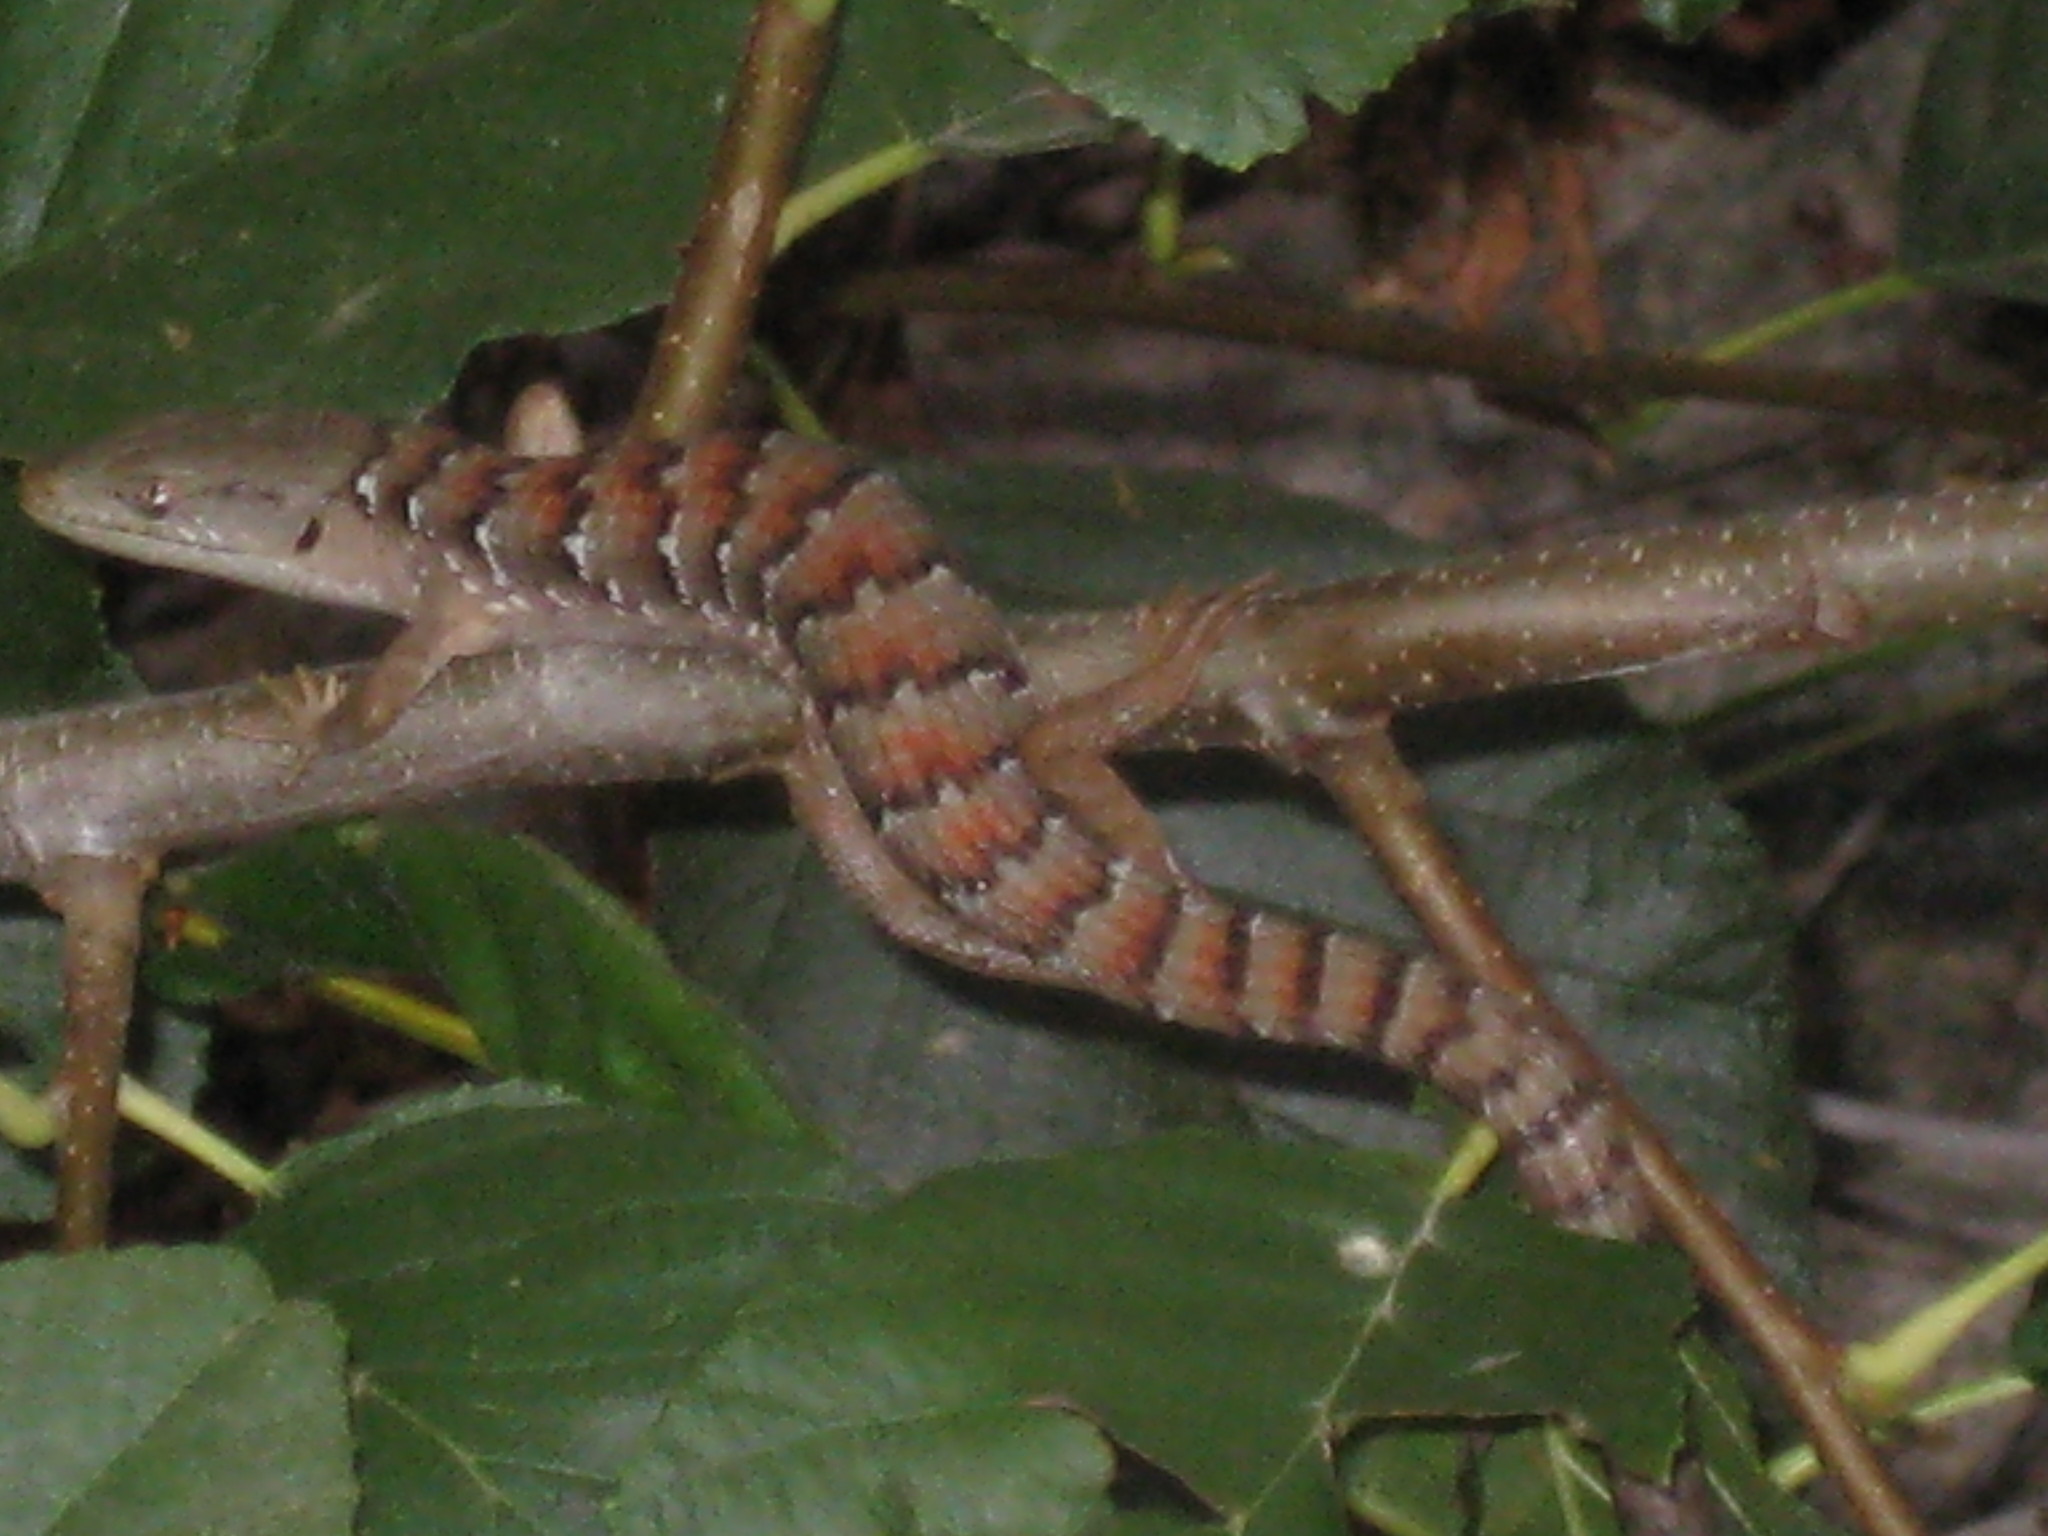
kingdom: Animalia
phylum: Chordata
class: Squamata
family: Anguidae
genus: Elgaria
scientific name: Elgaria multicarinata
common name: Southern alligator lizard
